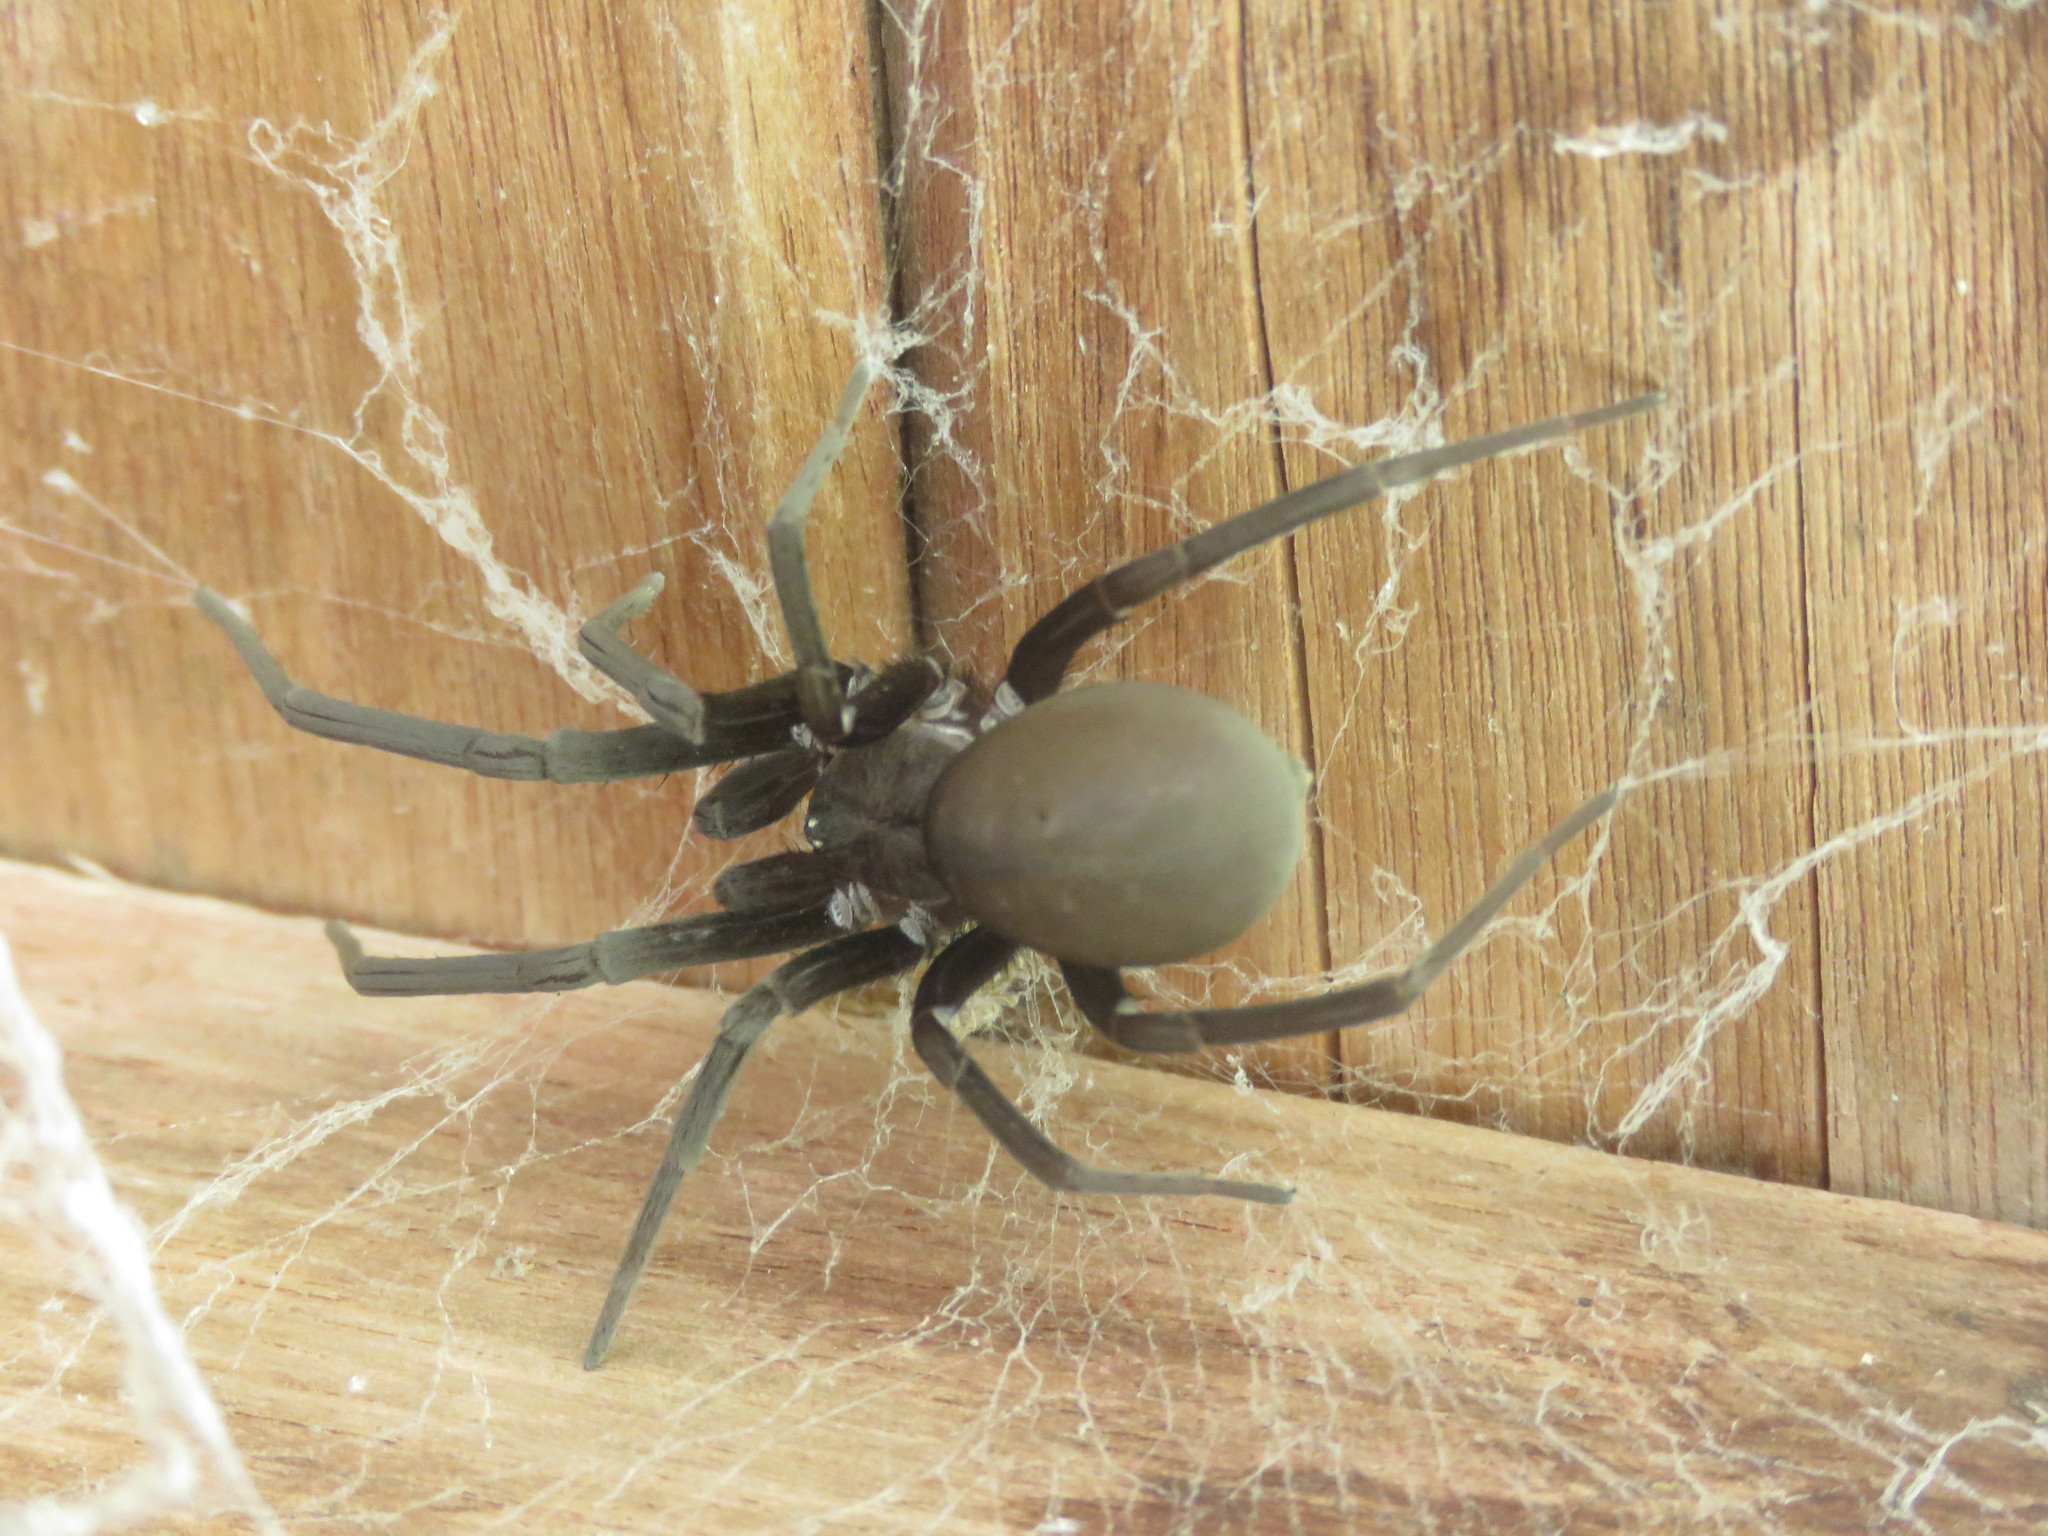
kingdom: Animalia
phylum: Arthropoda
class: Arachnida
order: Araneae
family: Filistatidae
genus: Kukulcania
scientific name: Kukulcania hibernalis
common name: Crevice weaver
